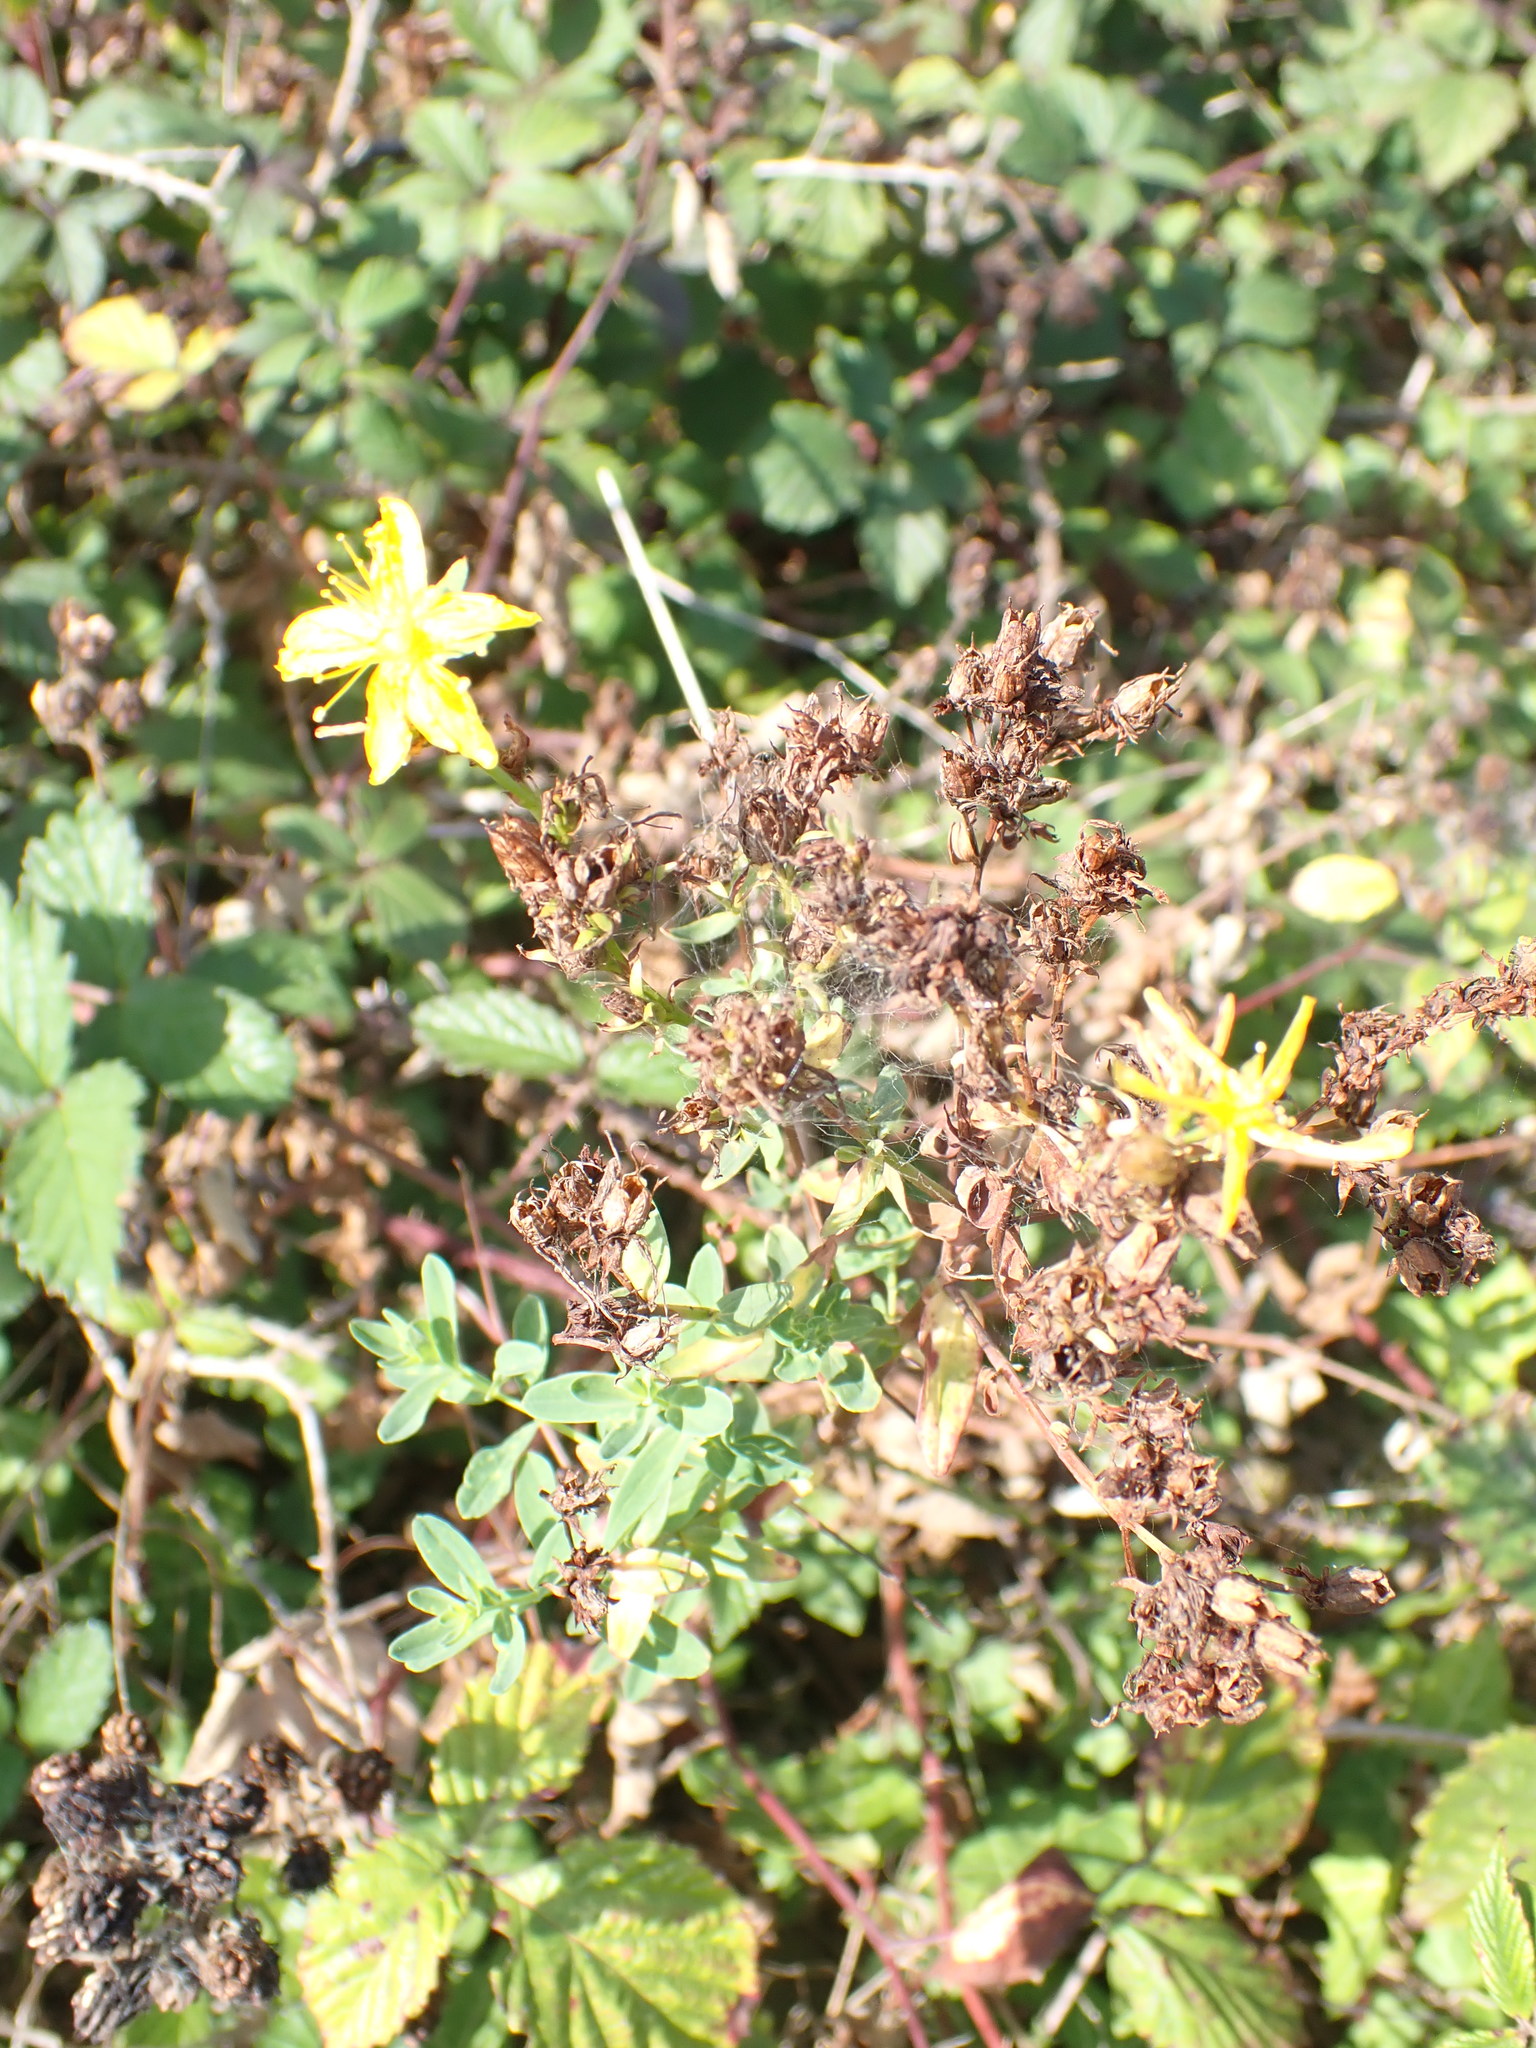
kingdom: Plantae
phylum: Tracheophyta
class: Magnoliopsida
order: Malpighiales
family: Hypericaceae
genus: Hypericum
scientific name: Hypericum perforatum
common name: Common st. johnswort
